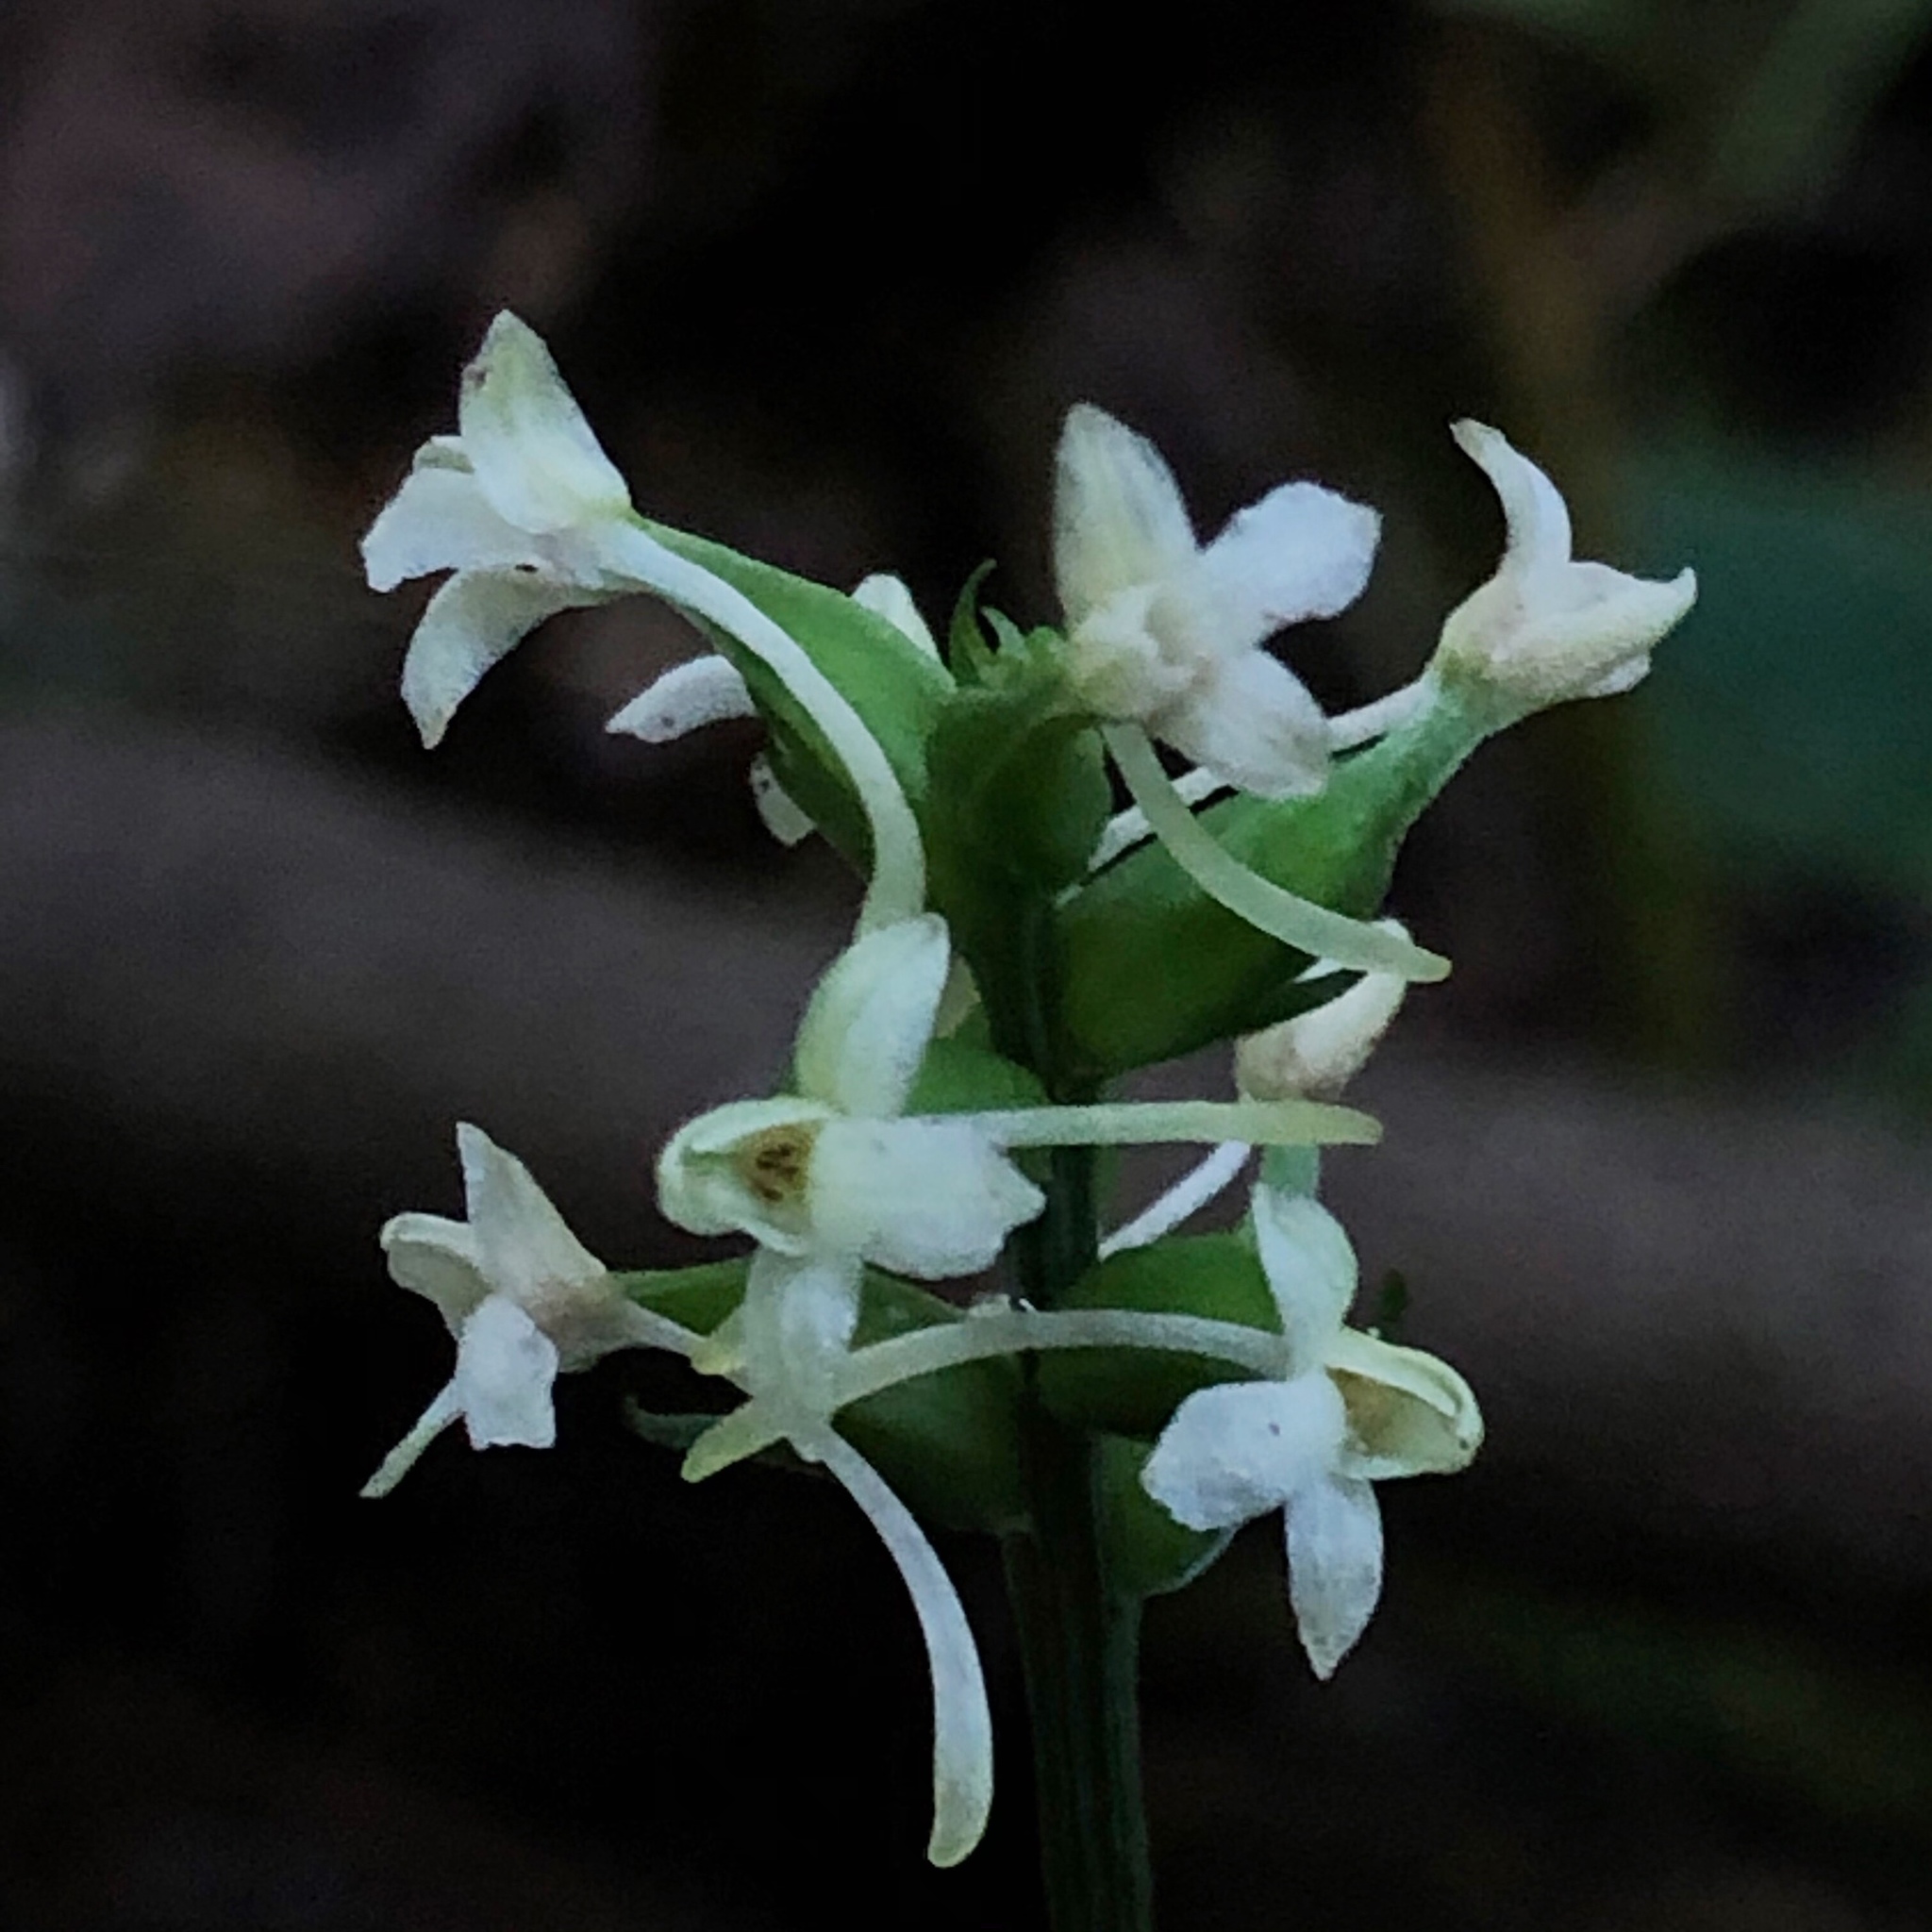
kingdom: Plantae
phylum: Tracheophyta
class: Liliopsida
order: Asparagales
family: Orchidaceae
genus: Platanthera
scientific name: Platanthera clavellata
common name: Club-spur orchid
